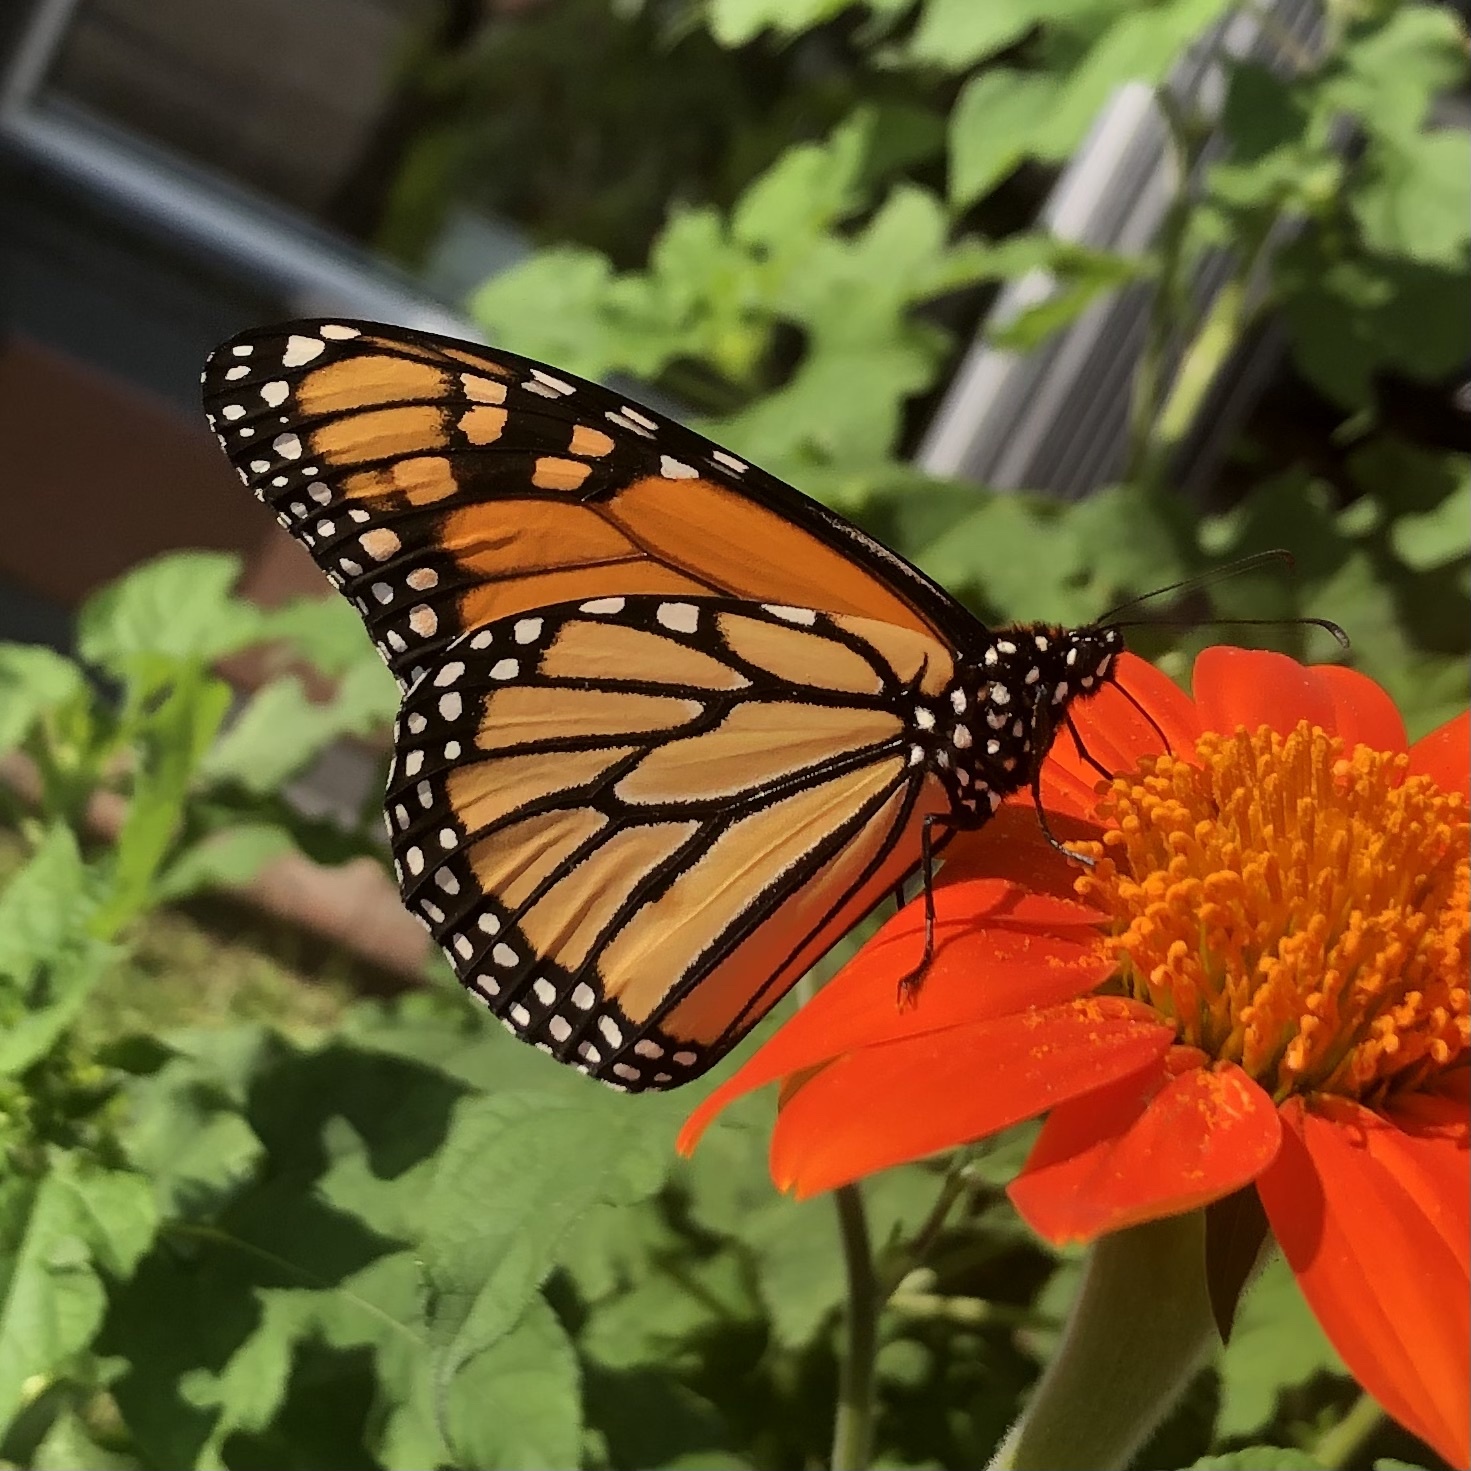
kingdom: Animalia
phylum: Arthropoda
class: Insecta
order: Lepidoptera
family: Nymphalidae
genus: Danaus
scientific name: Danaus plexippus
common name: Monarch
